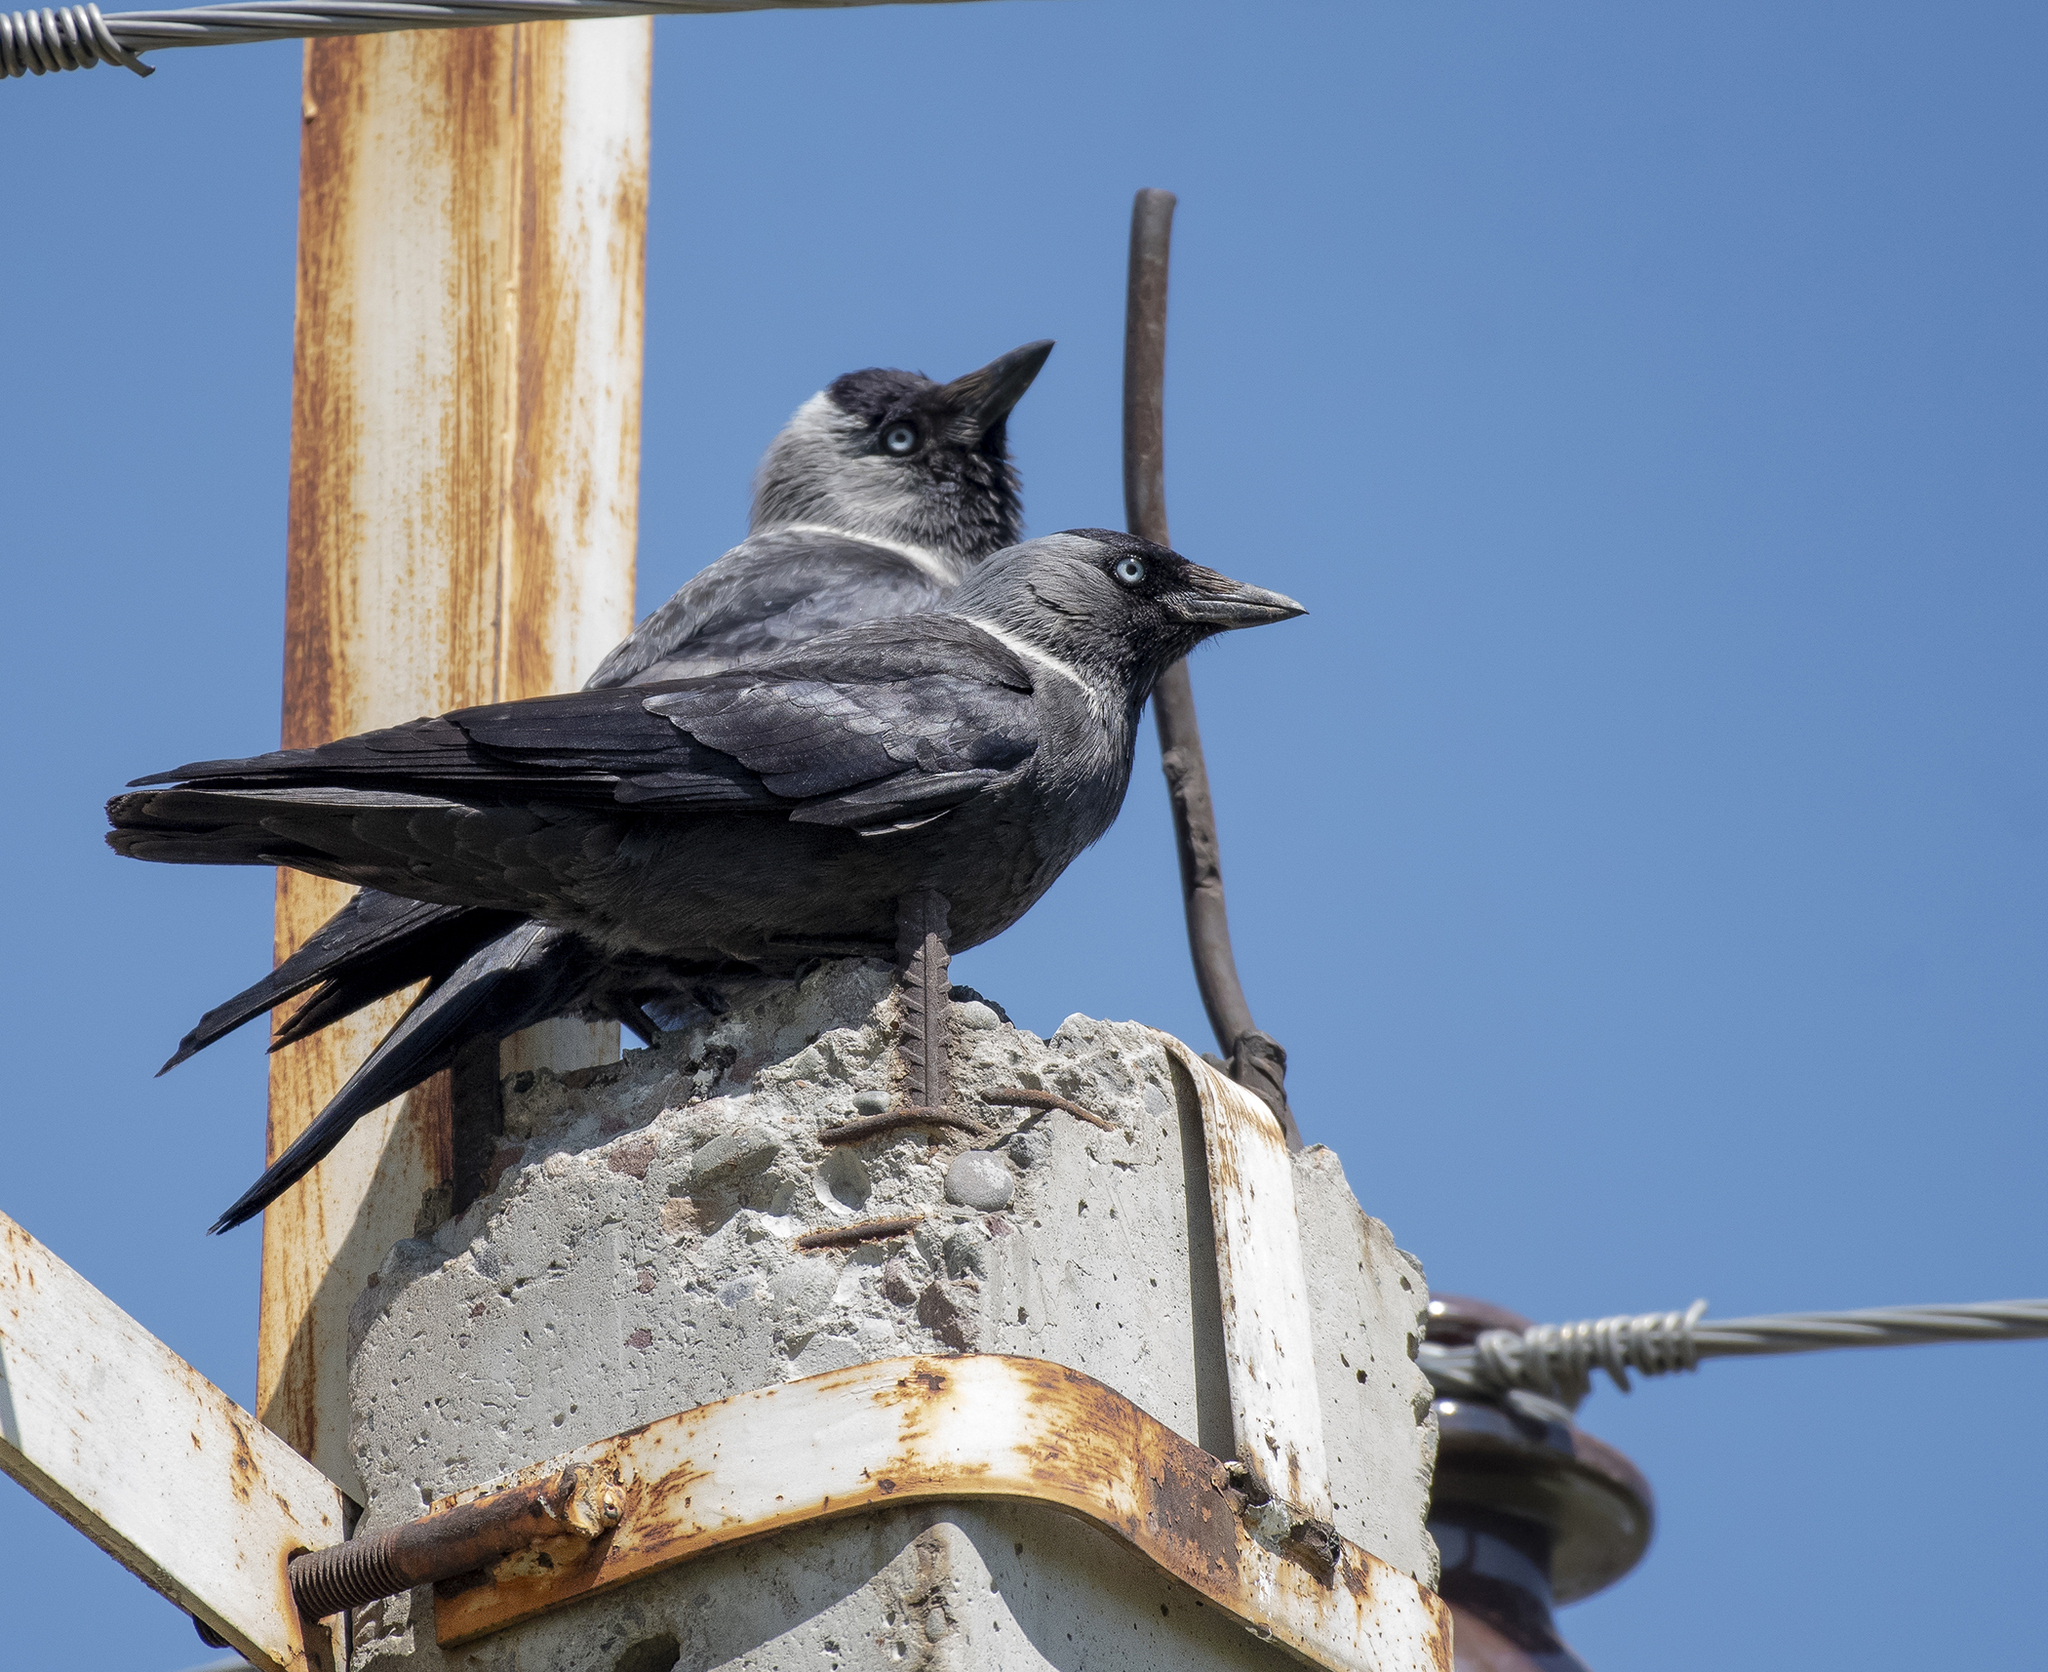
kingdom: Animalia
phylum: Chordata
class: Aves
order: Passeriformes
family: Corvidae
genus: Coloeus
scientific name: Coloeus monedula
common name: Western jackdaw
